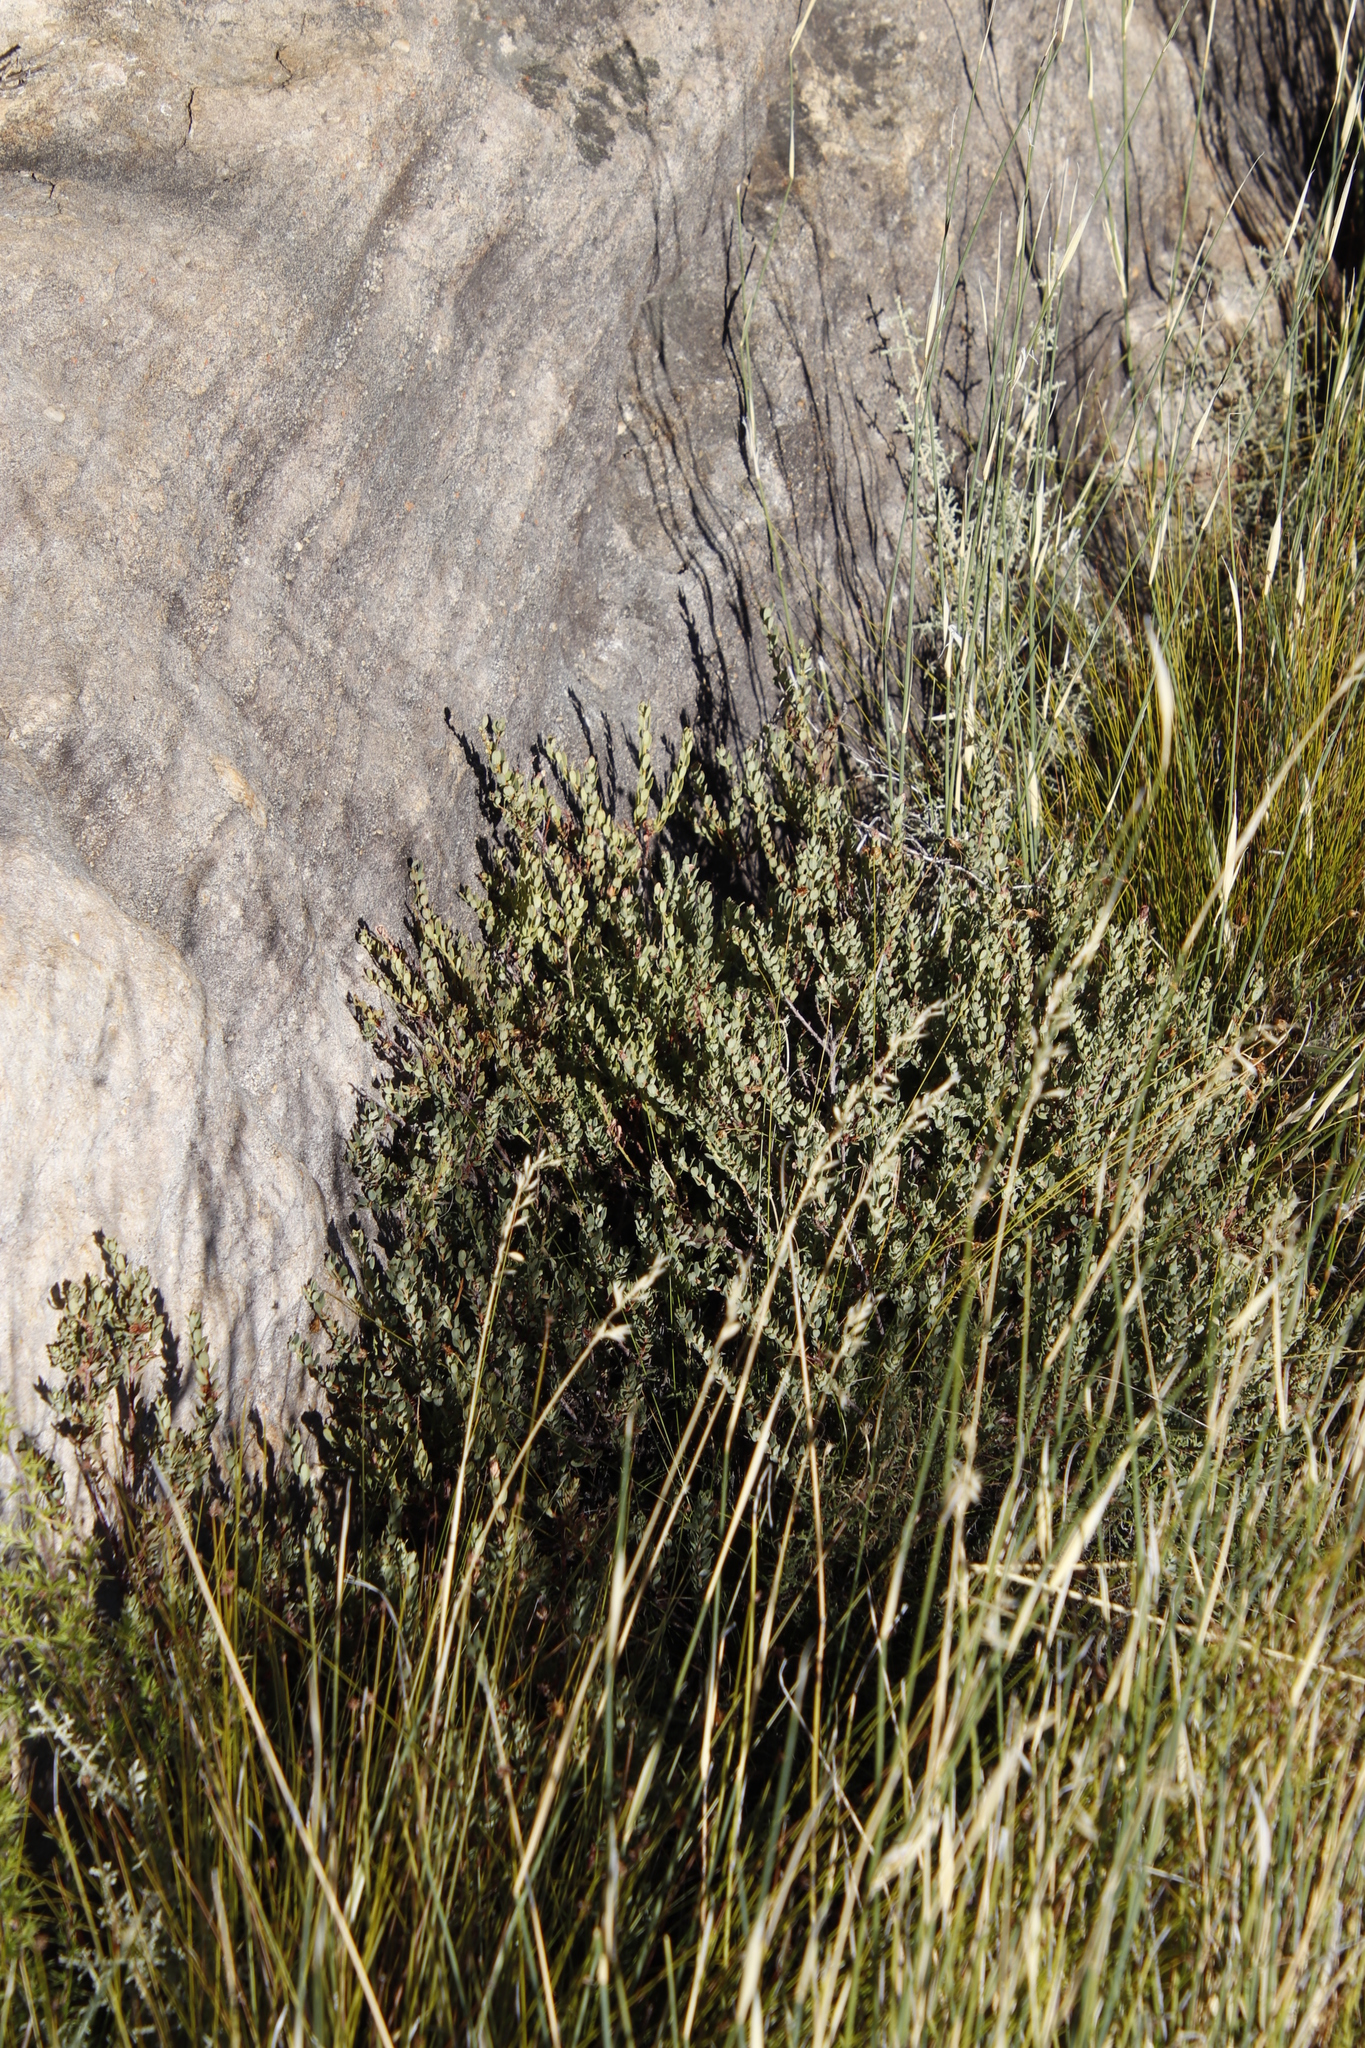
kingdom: Plantae
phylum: Tracheophyta
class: Magnoliopsida
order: Malpighiales
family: Peraceae
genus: Clutia
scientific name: Clutia alaternoides
